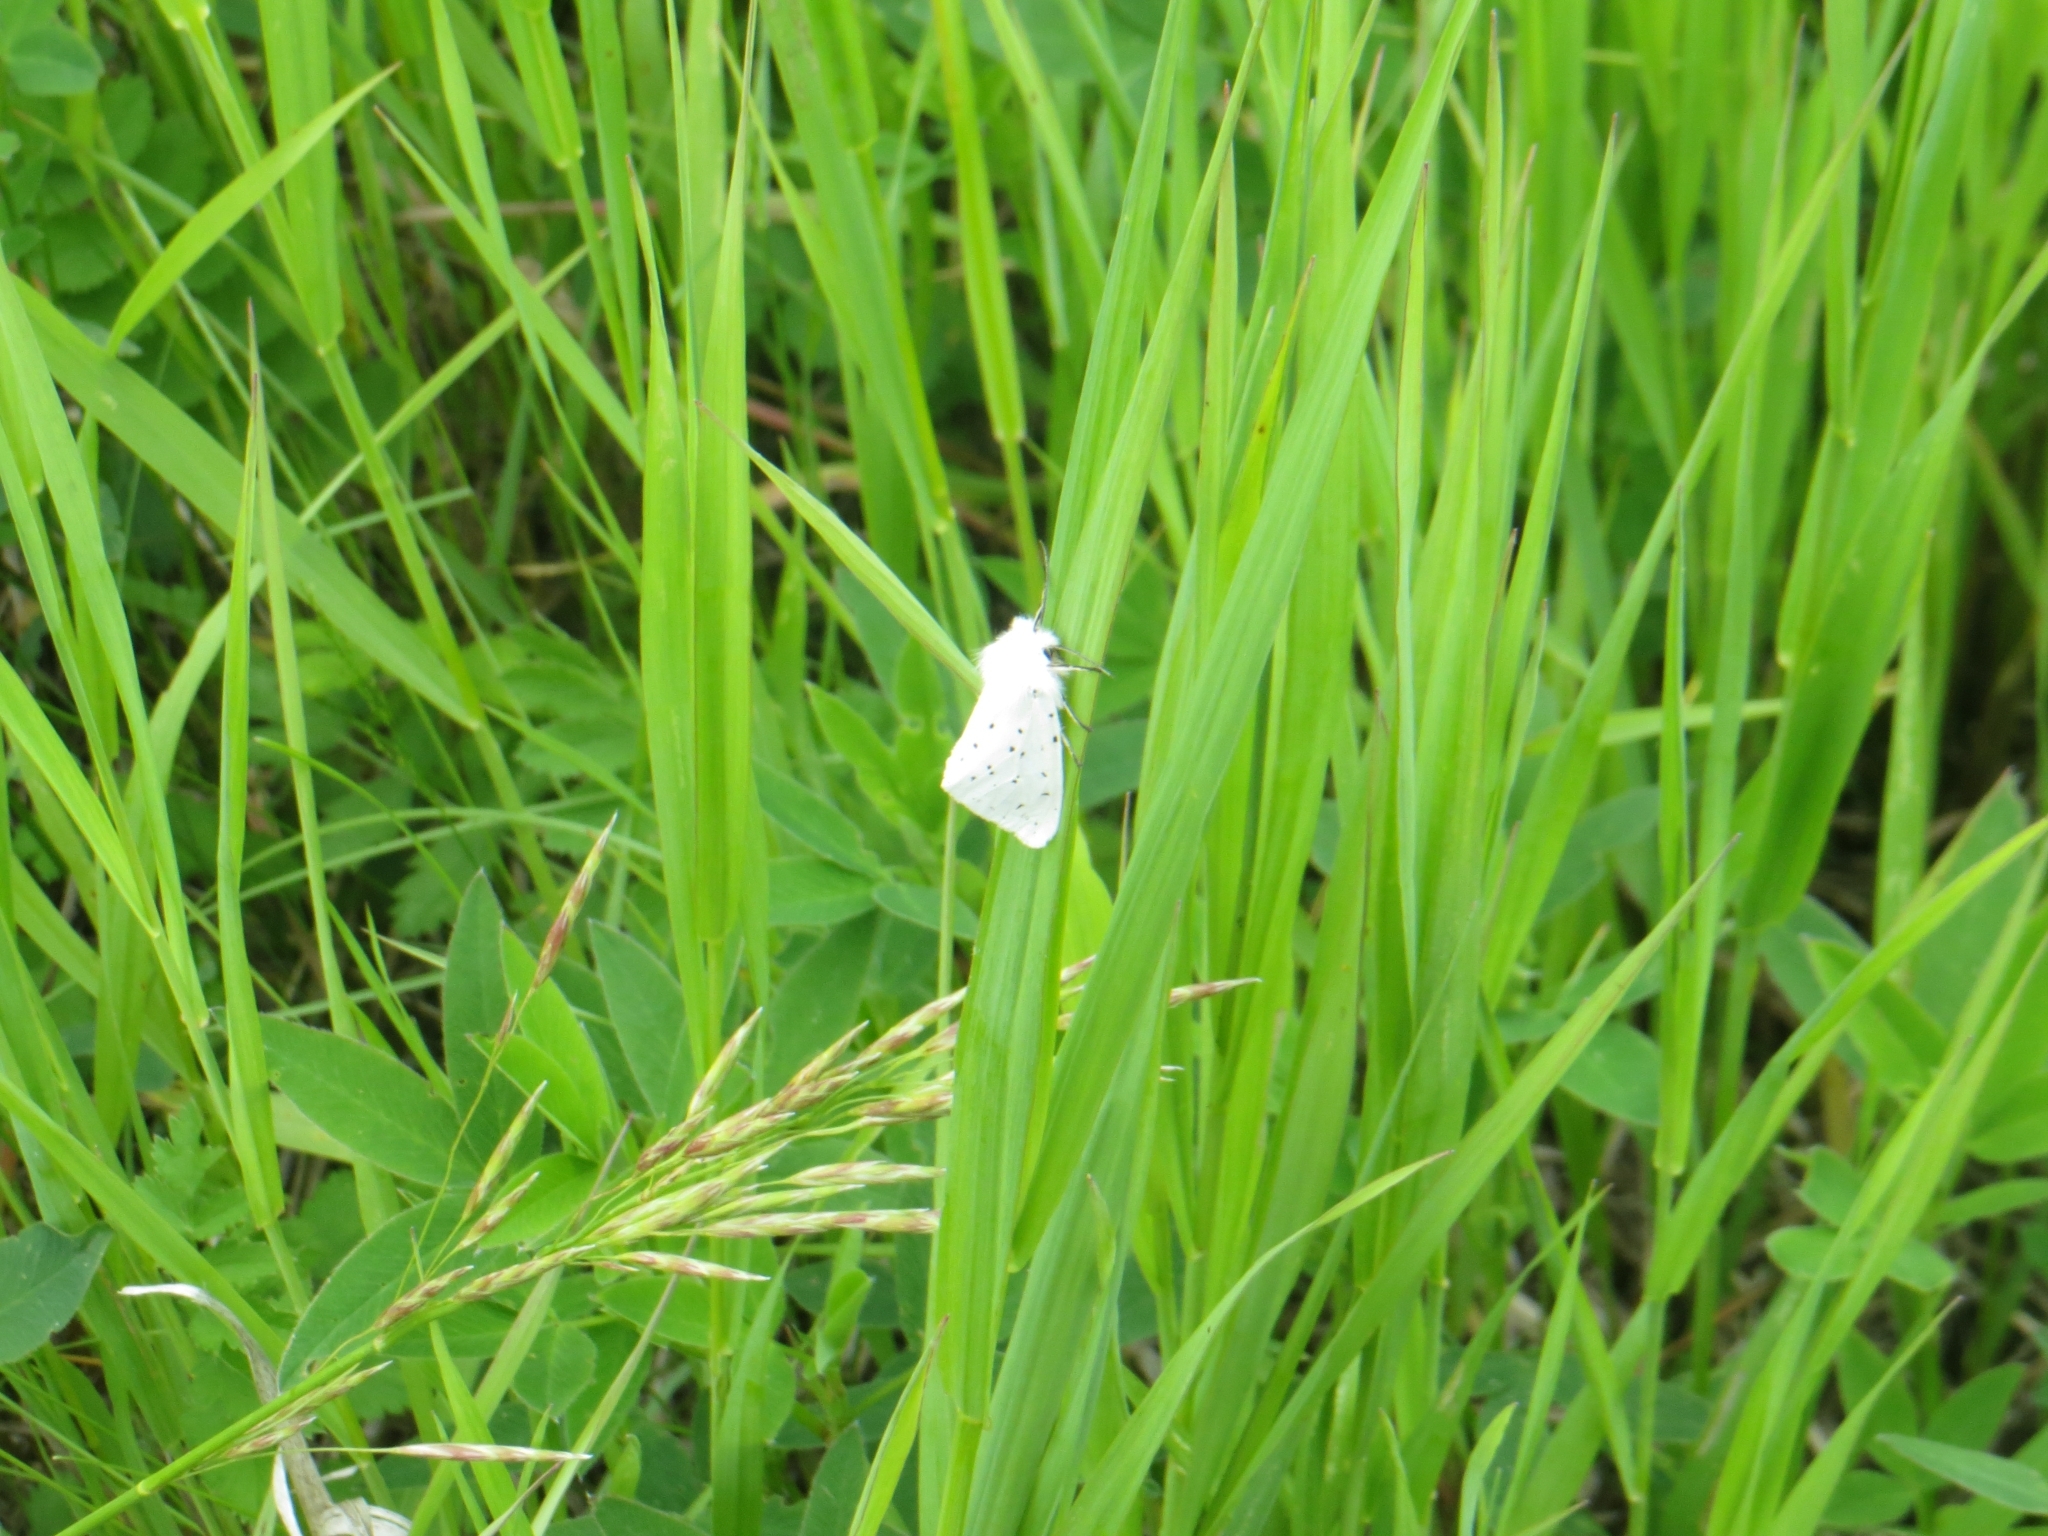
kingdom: Animalia
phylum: Arthropoda
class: Insecta
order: Lepidoptera
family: Erebidae
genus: Spilosoma
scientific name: Spilosoma lubricipeda
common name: White ermine
